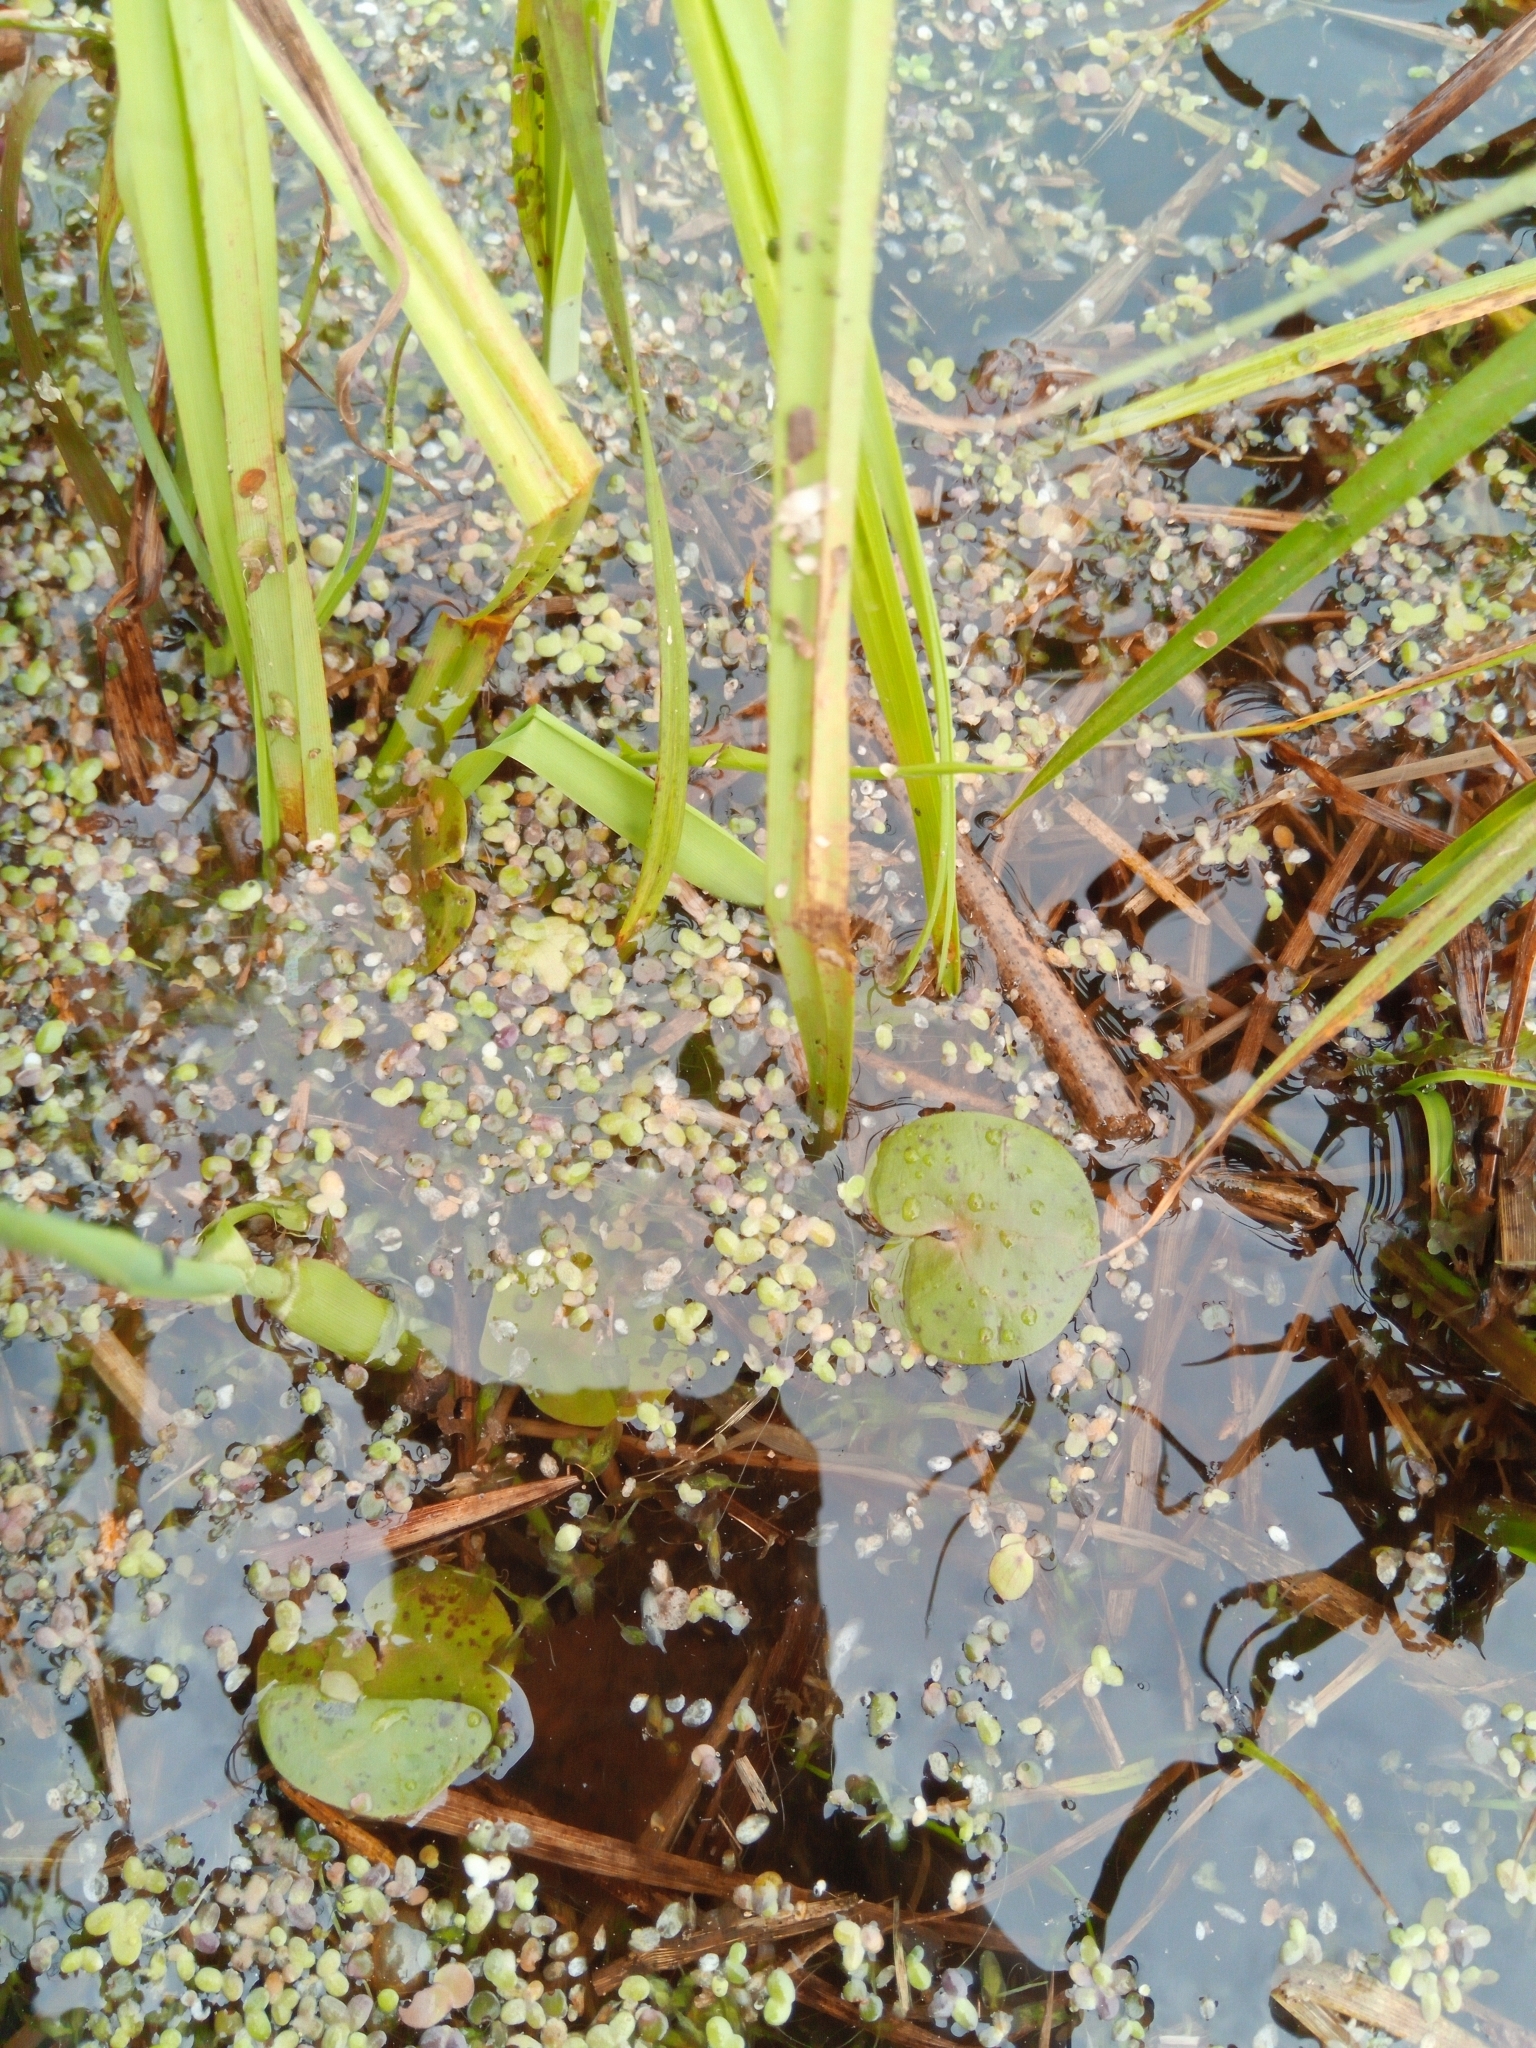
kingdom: Plantae
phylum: Tracheophyta
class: Liliopsida
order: Alismatales
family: Hydrocharitaceae
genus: Hydrocharis
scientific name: Hydrocharis morsus-ranae
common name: Frogbit
